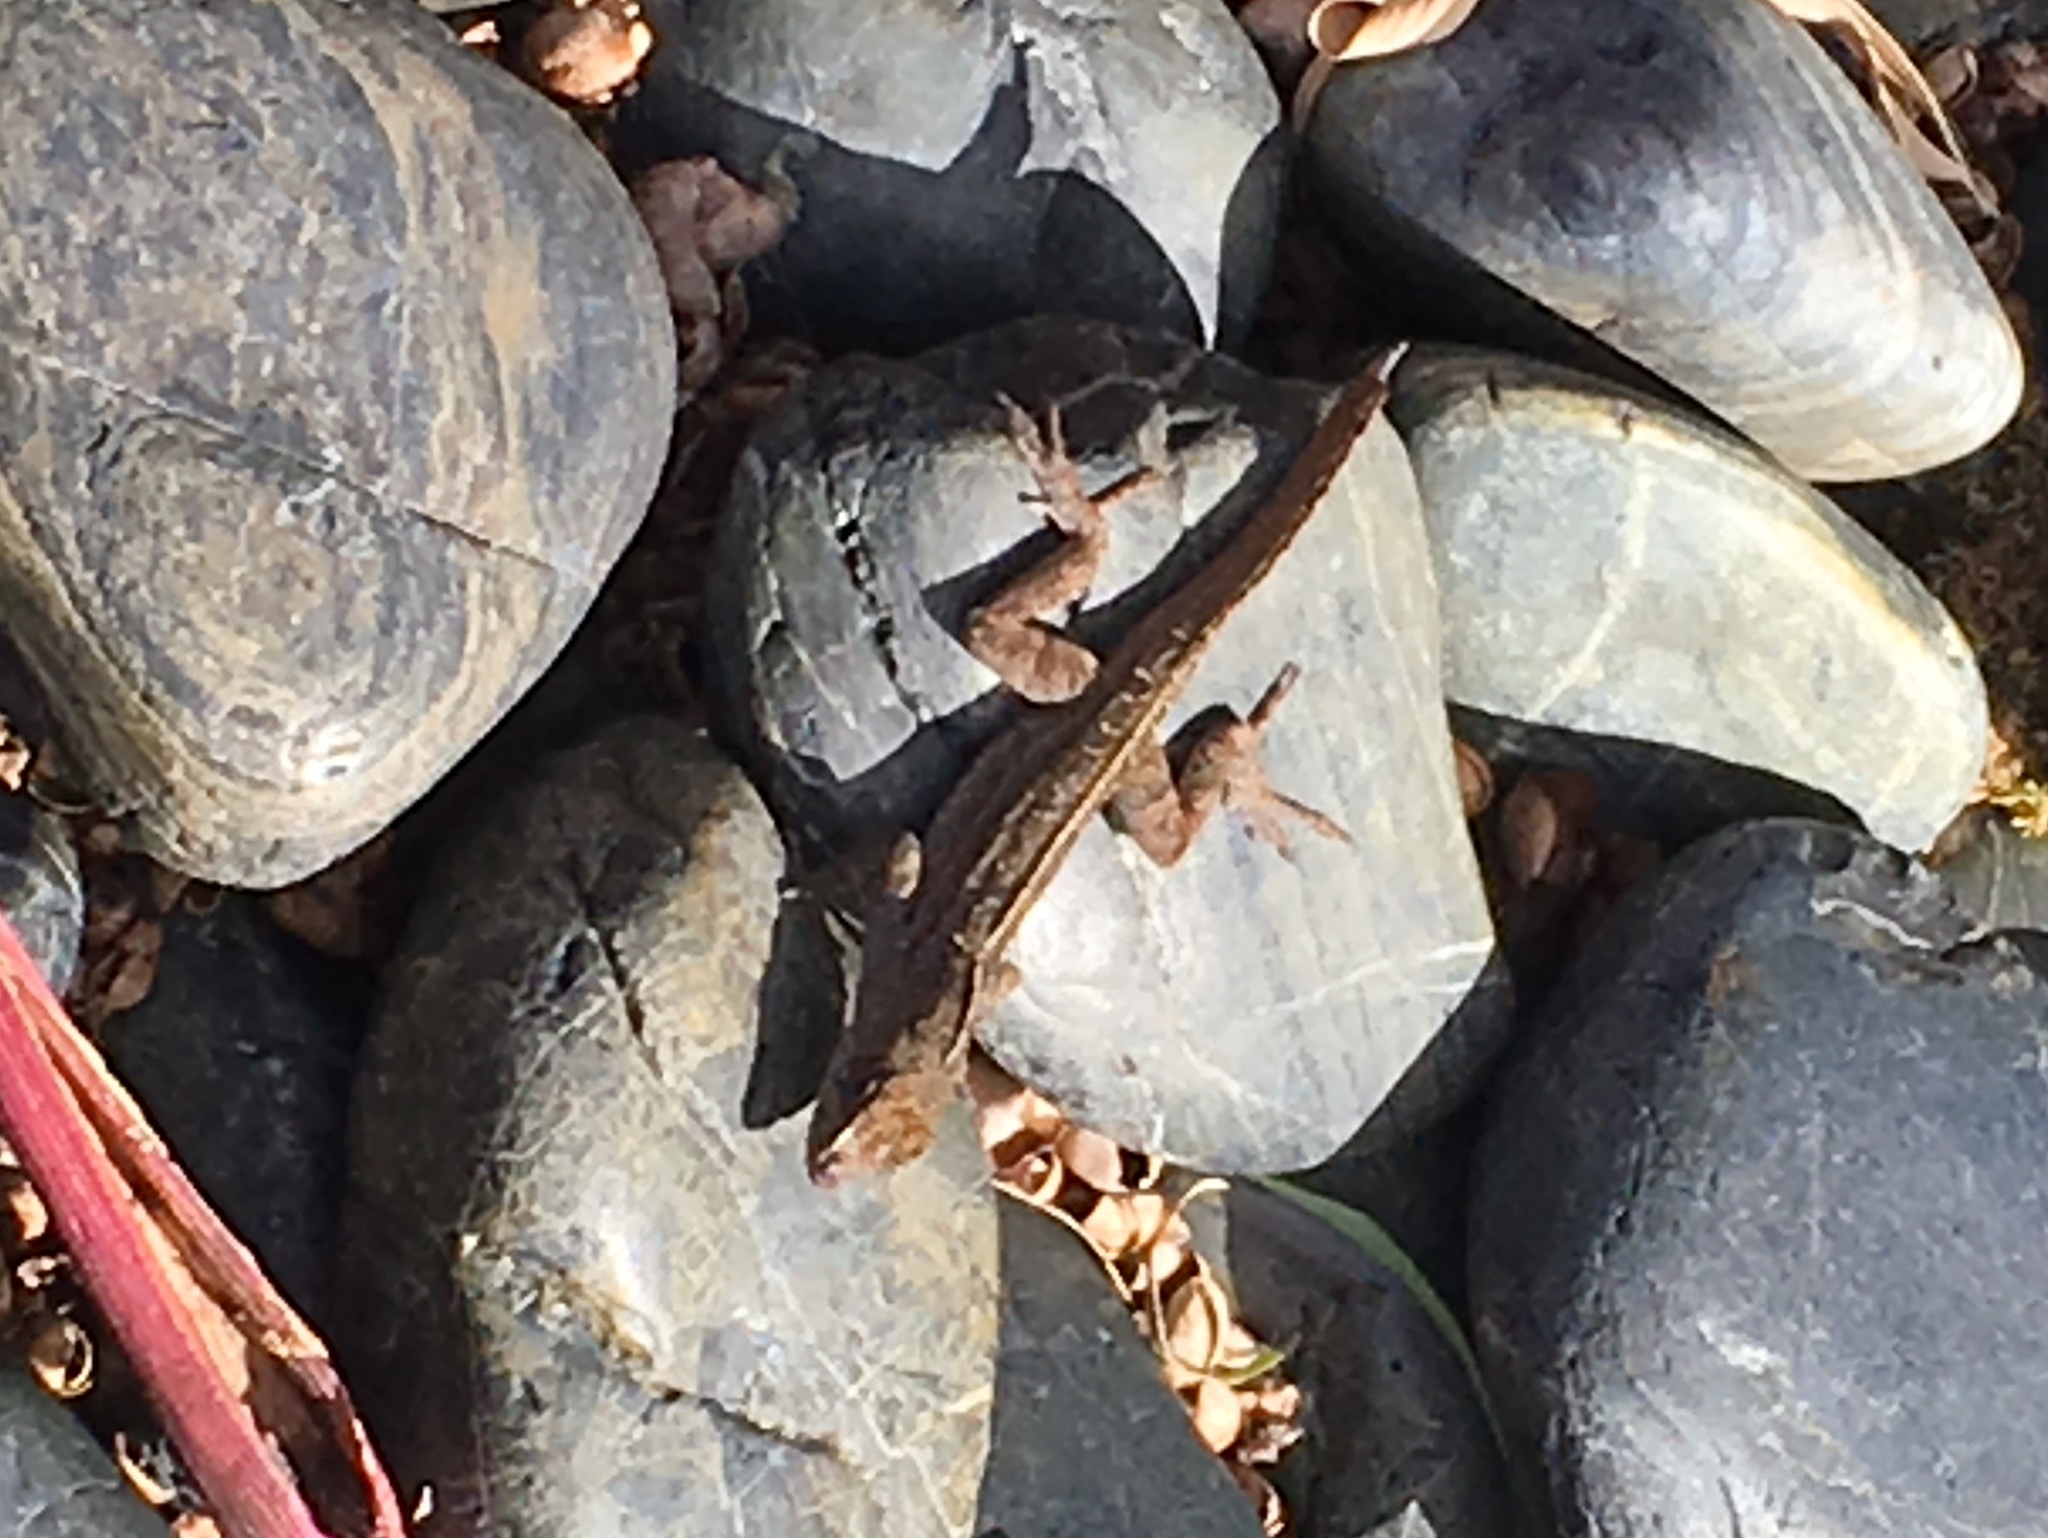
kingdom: Animalia
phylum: Chordata
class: Squamata
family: Dactyloidae
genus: Anolis
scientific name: Anolis sagrei
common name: Brown anole
